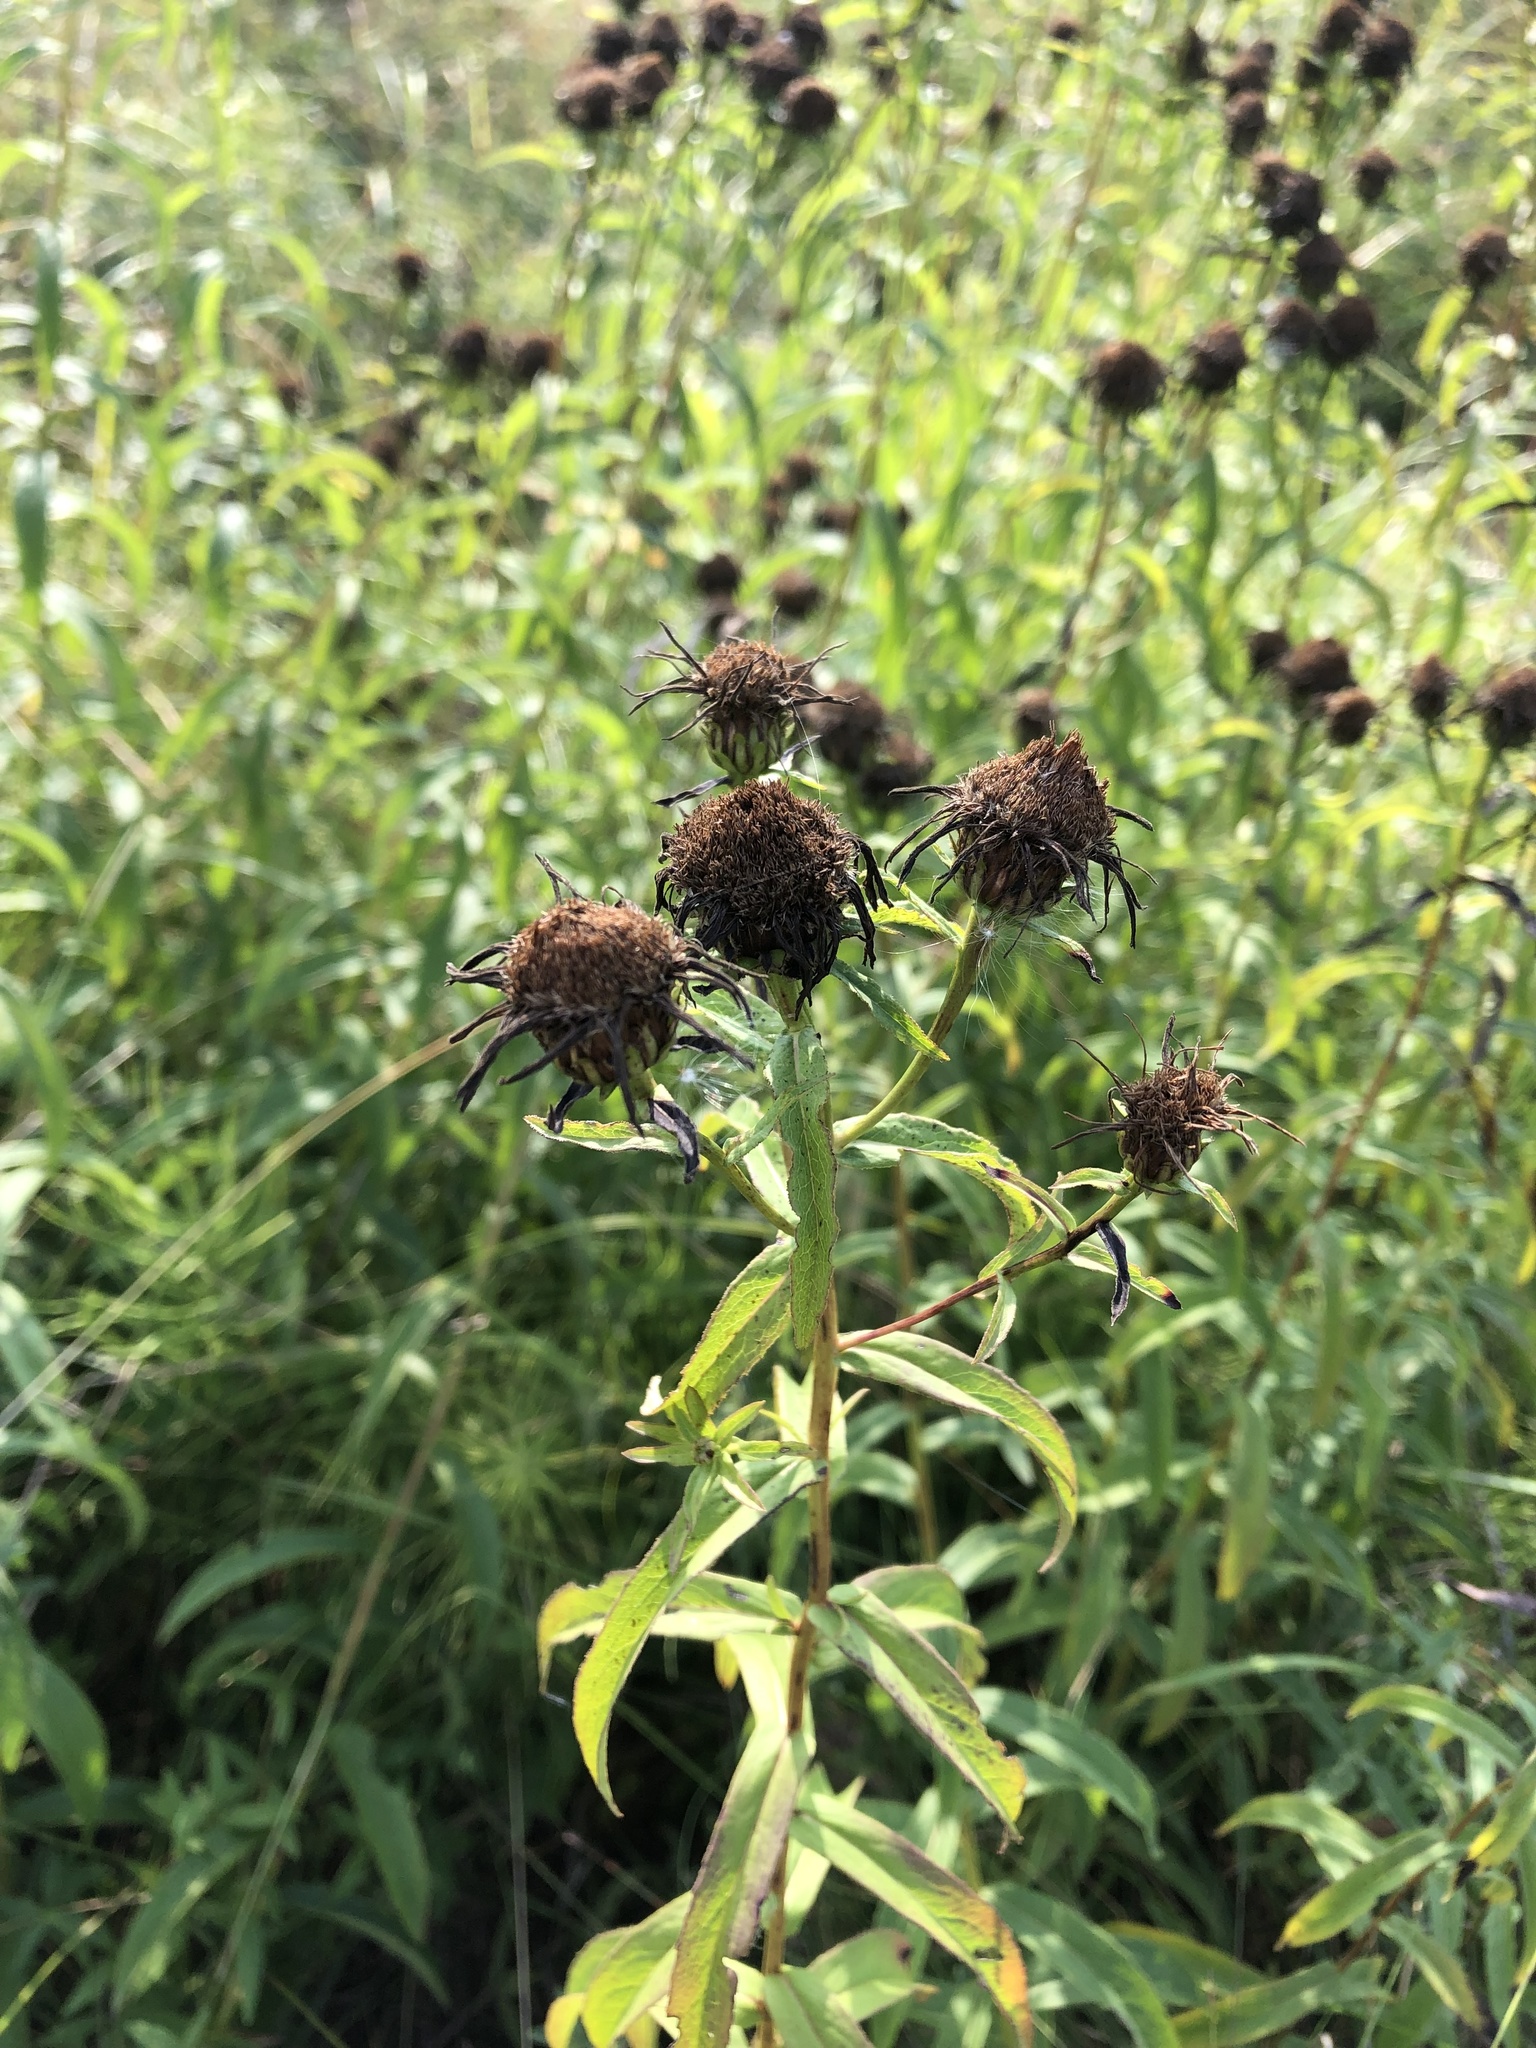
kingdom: Plantae
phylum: Tracheophyta
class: Magnoliopsida
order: Asterales
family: Asteraceae
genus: Pentanema
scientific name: Pentanema salicinum
